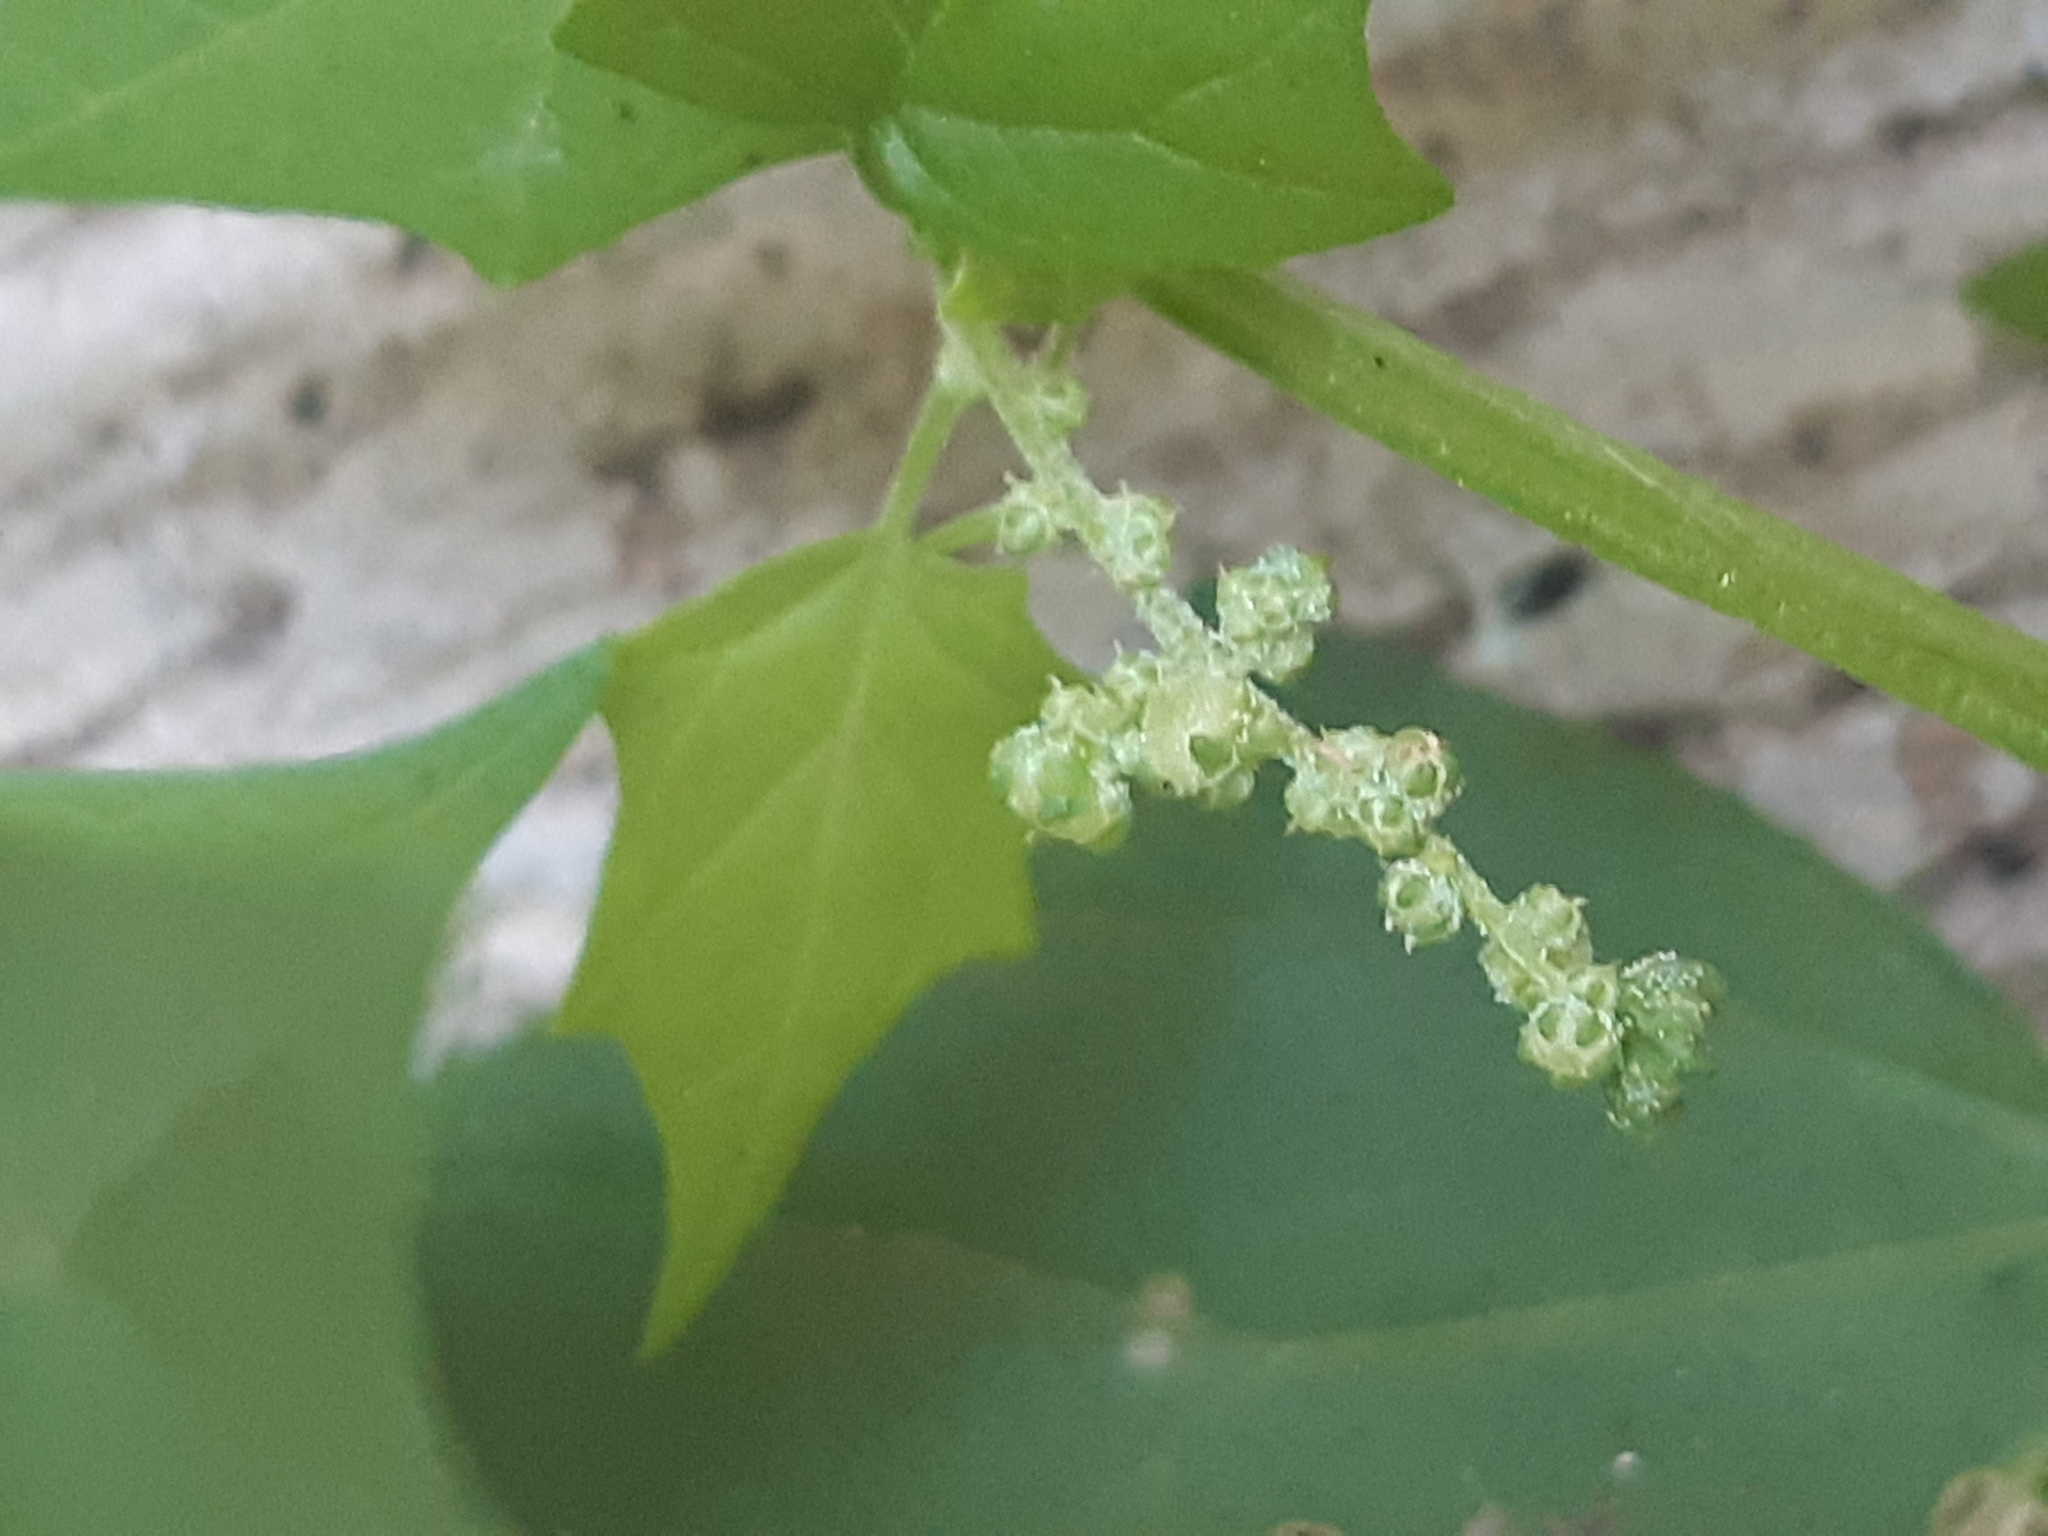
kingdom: Plantae
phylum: Tracheophyta
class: Magnoliopsida
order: Caryophyllales
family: Amaranthaceae
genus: Chenopodiastrum
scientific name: Chenopodiastrum hybridum
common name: Mapleleaf goosefoot
